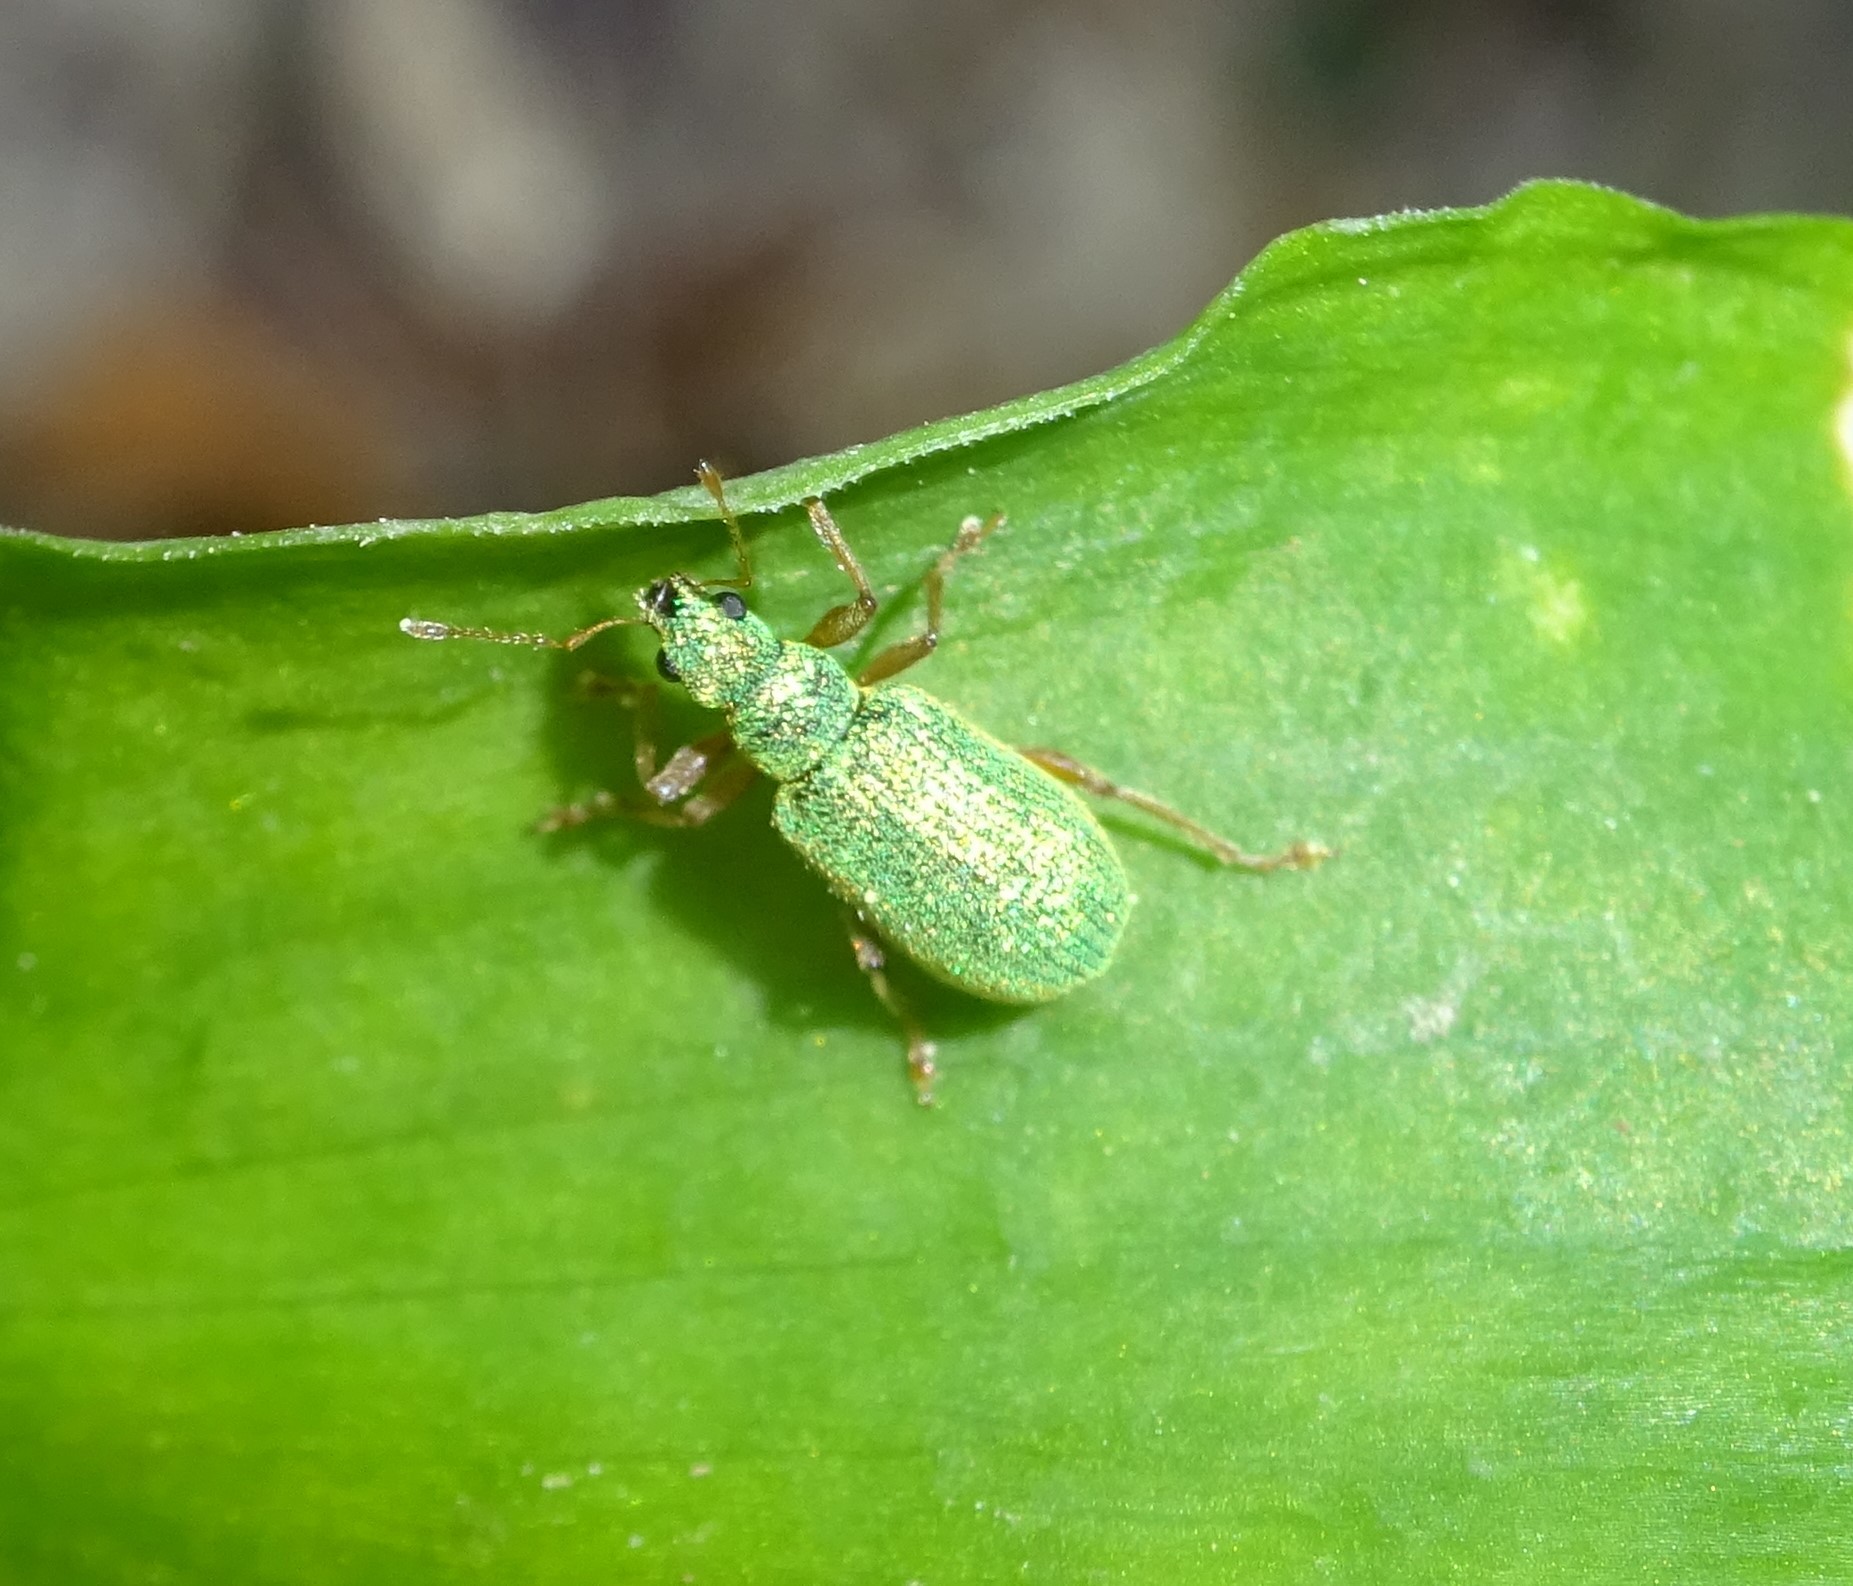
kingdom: Animalia
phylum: Arthropoda
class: Insecta
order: Coleoptera
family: Curculionidae
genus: Polydrusus
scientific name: Polydrusus pterygomalis
